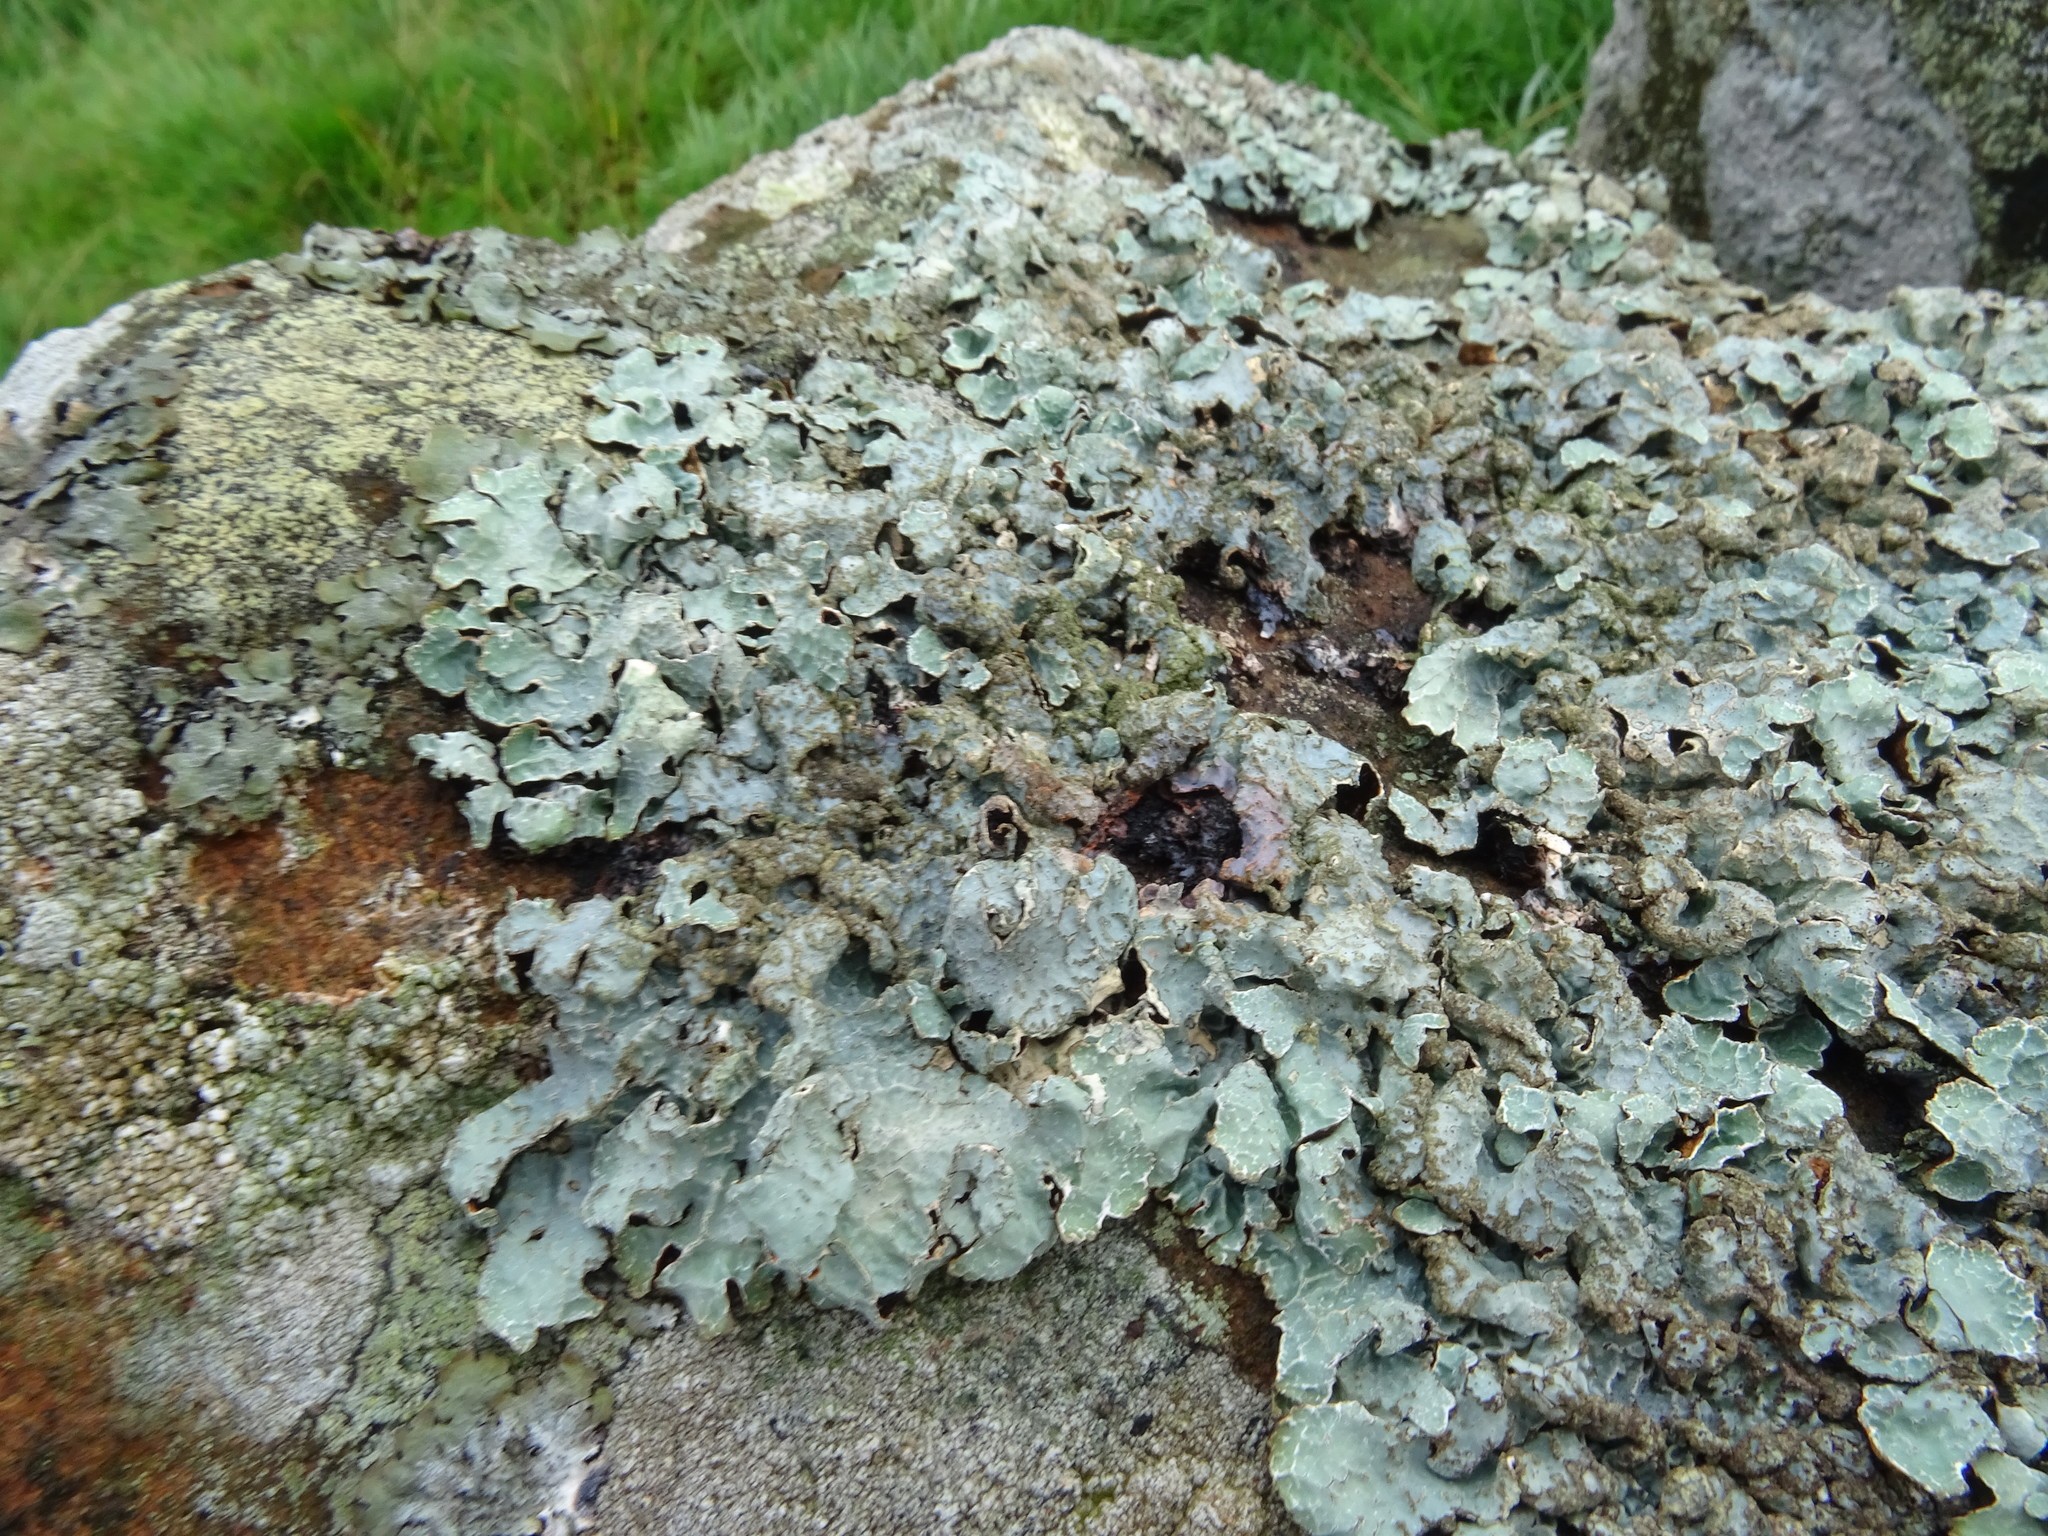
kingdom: Fungi
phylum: Ascomycota
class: Lecanoromycetes
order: Lecanorales
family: Parmeliaceae
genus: Parmelia
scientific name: Parmelia sulcata
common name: Netted shield lichen
